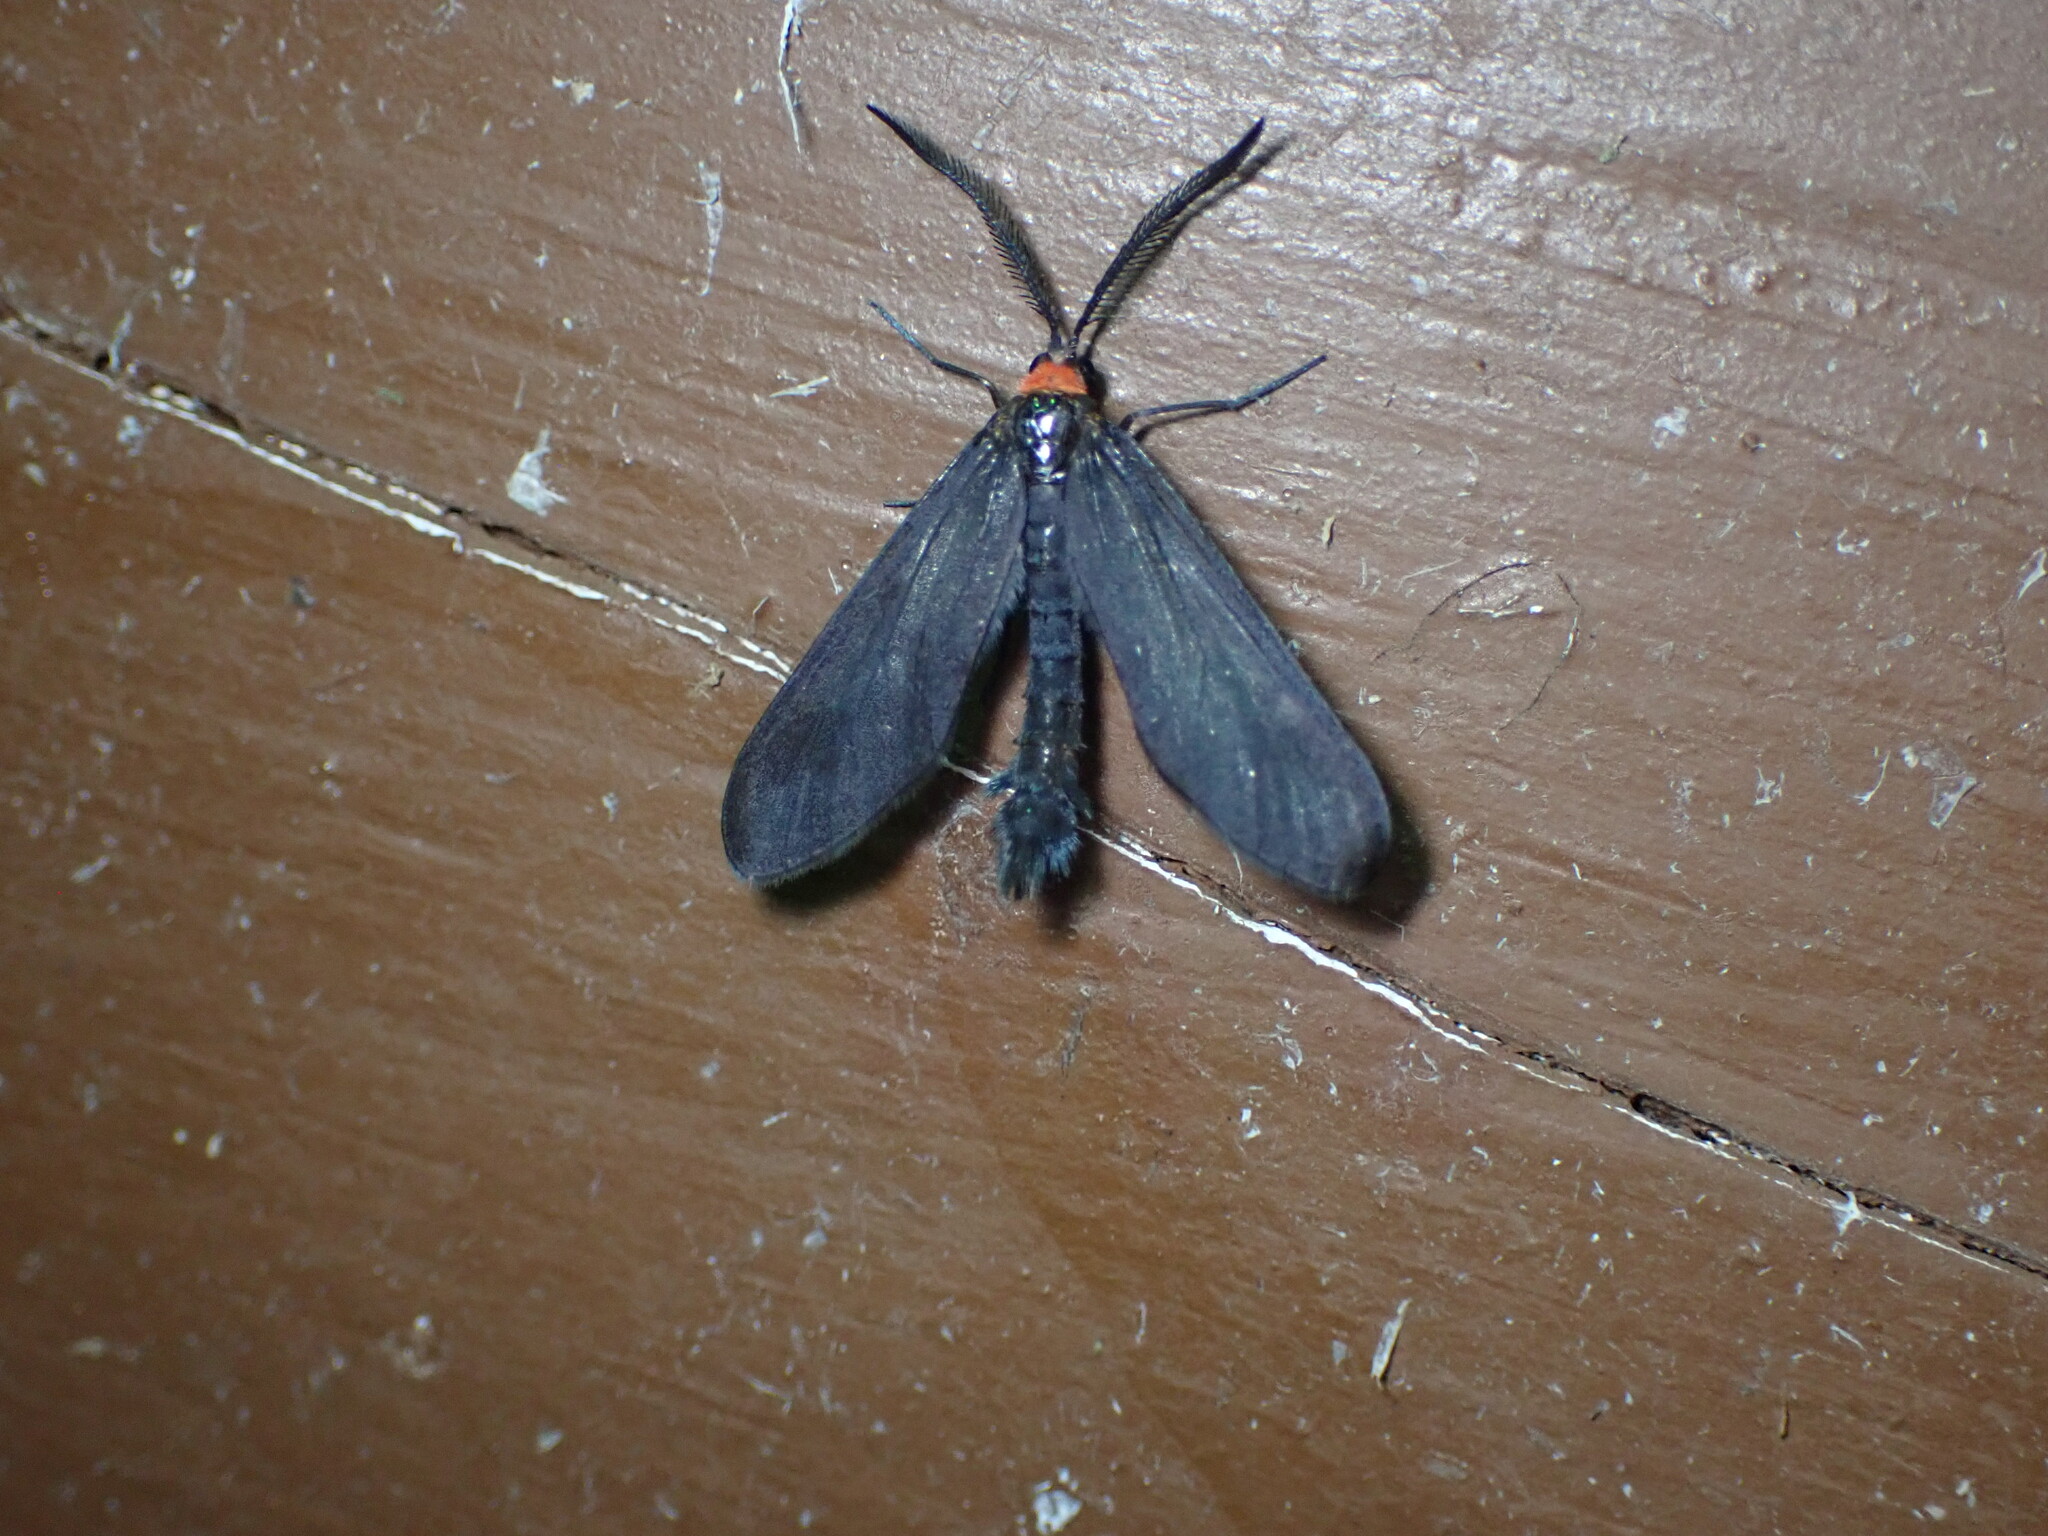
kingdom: Animalia
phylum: Arthropoda
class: Insecta
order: Lepidoptera
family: Zygaenidae
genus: Harrisina
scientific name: Harrisina americana
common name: Grapeleaf skeletonizer moth
